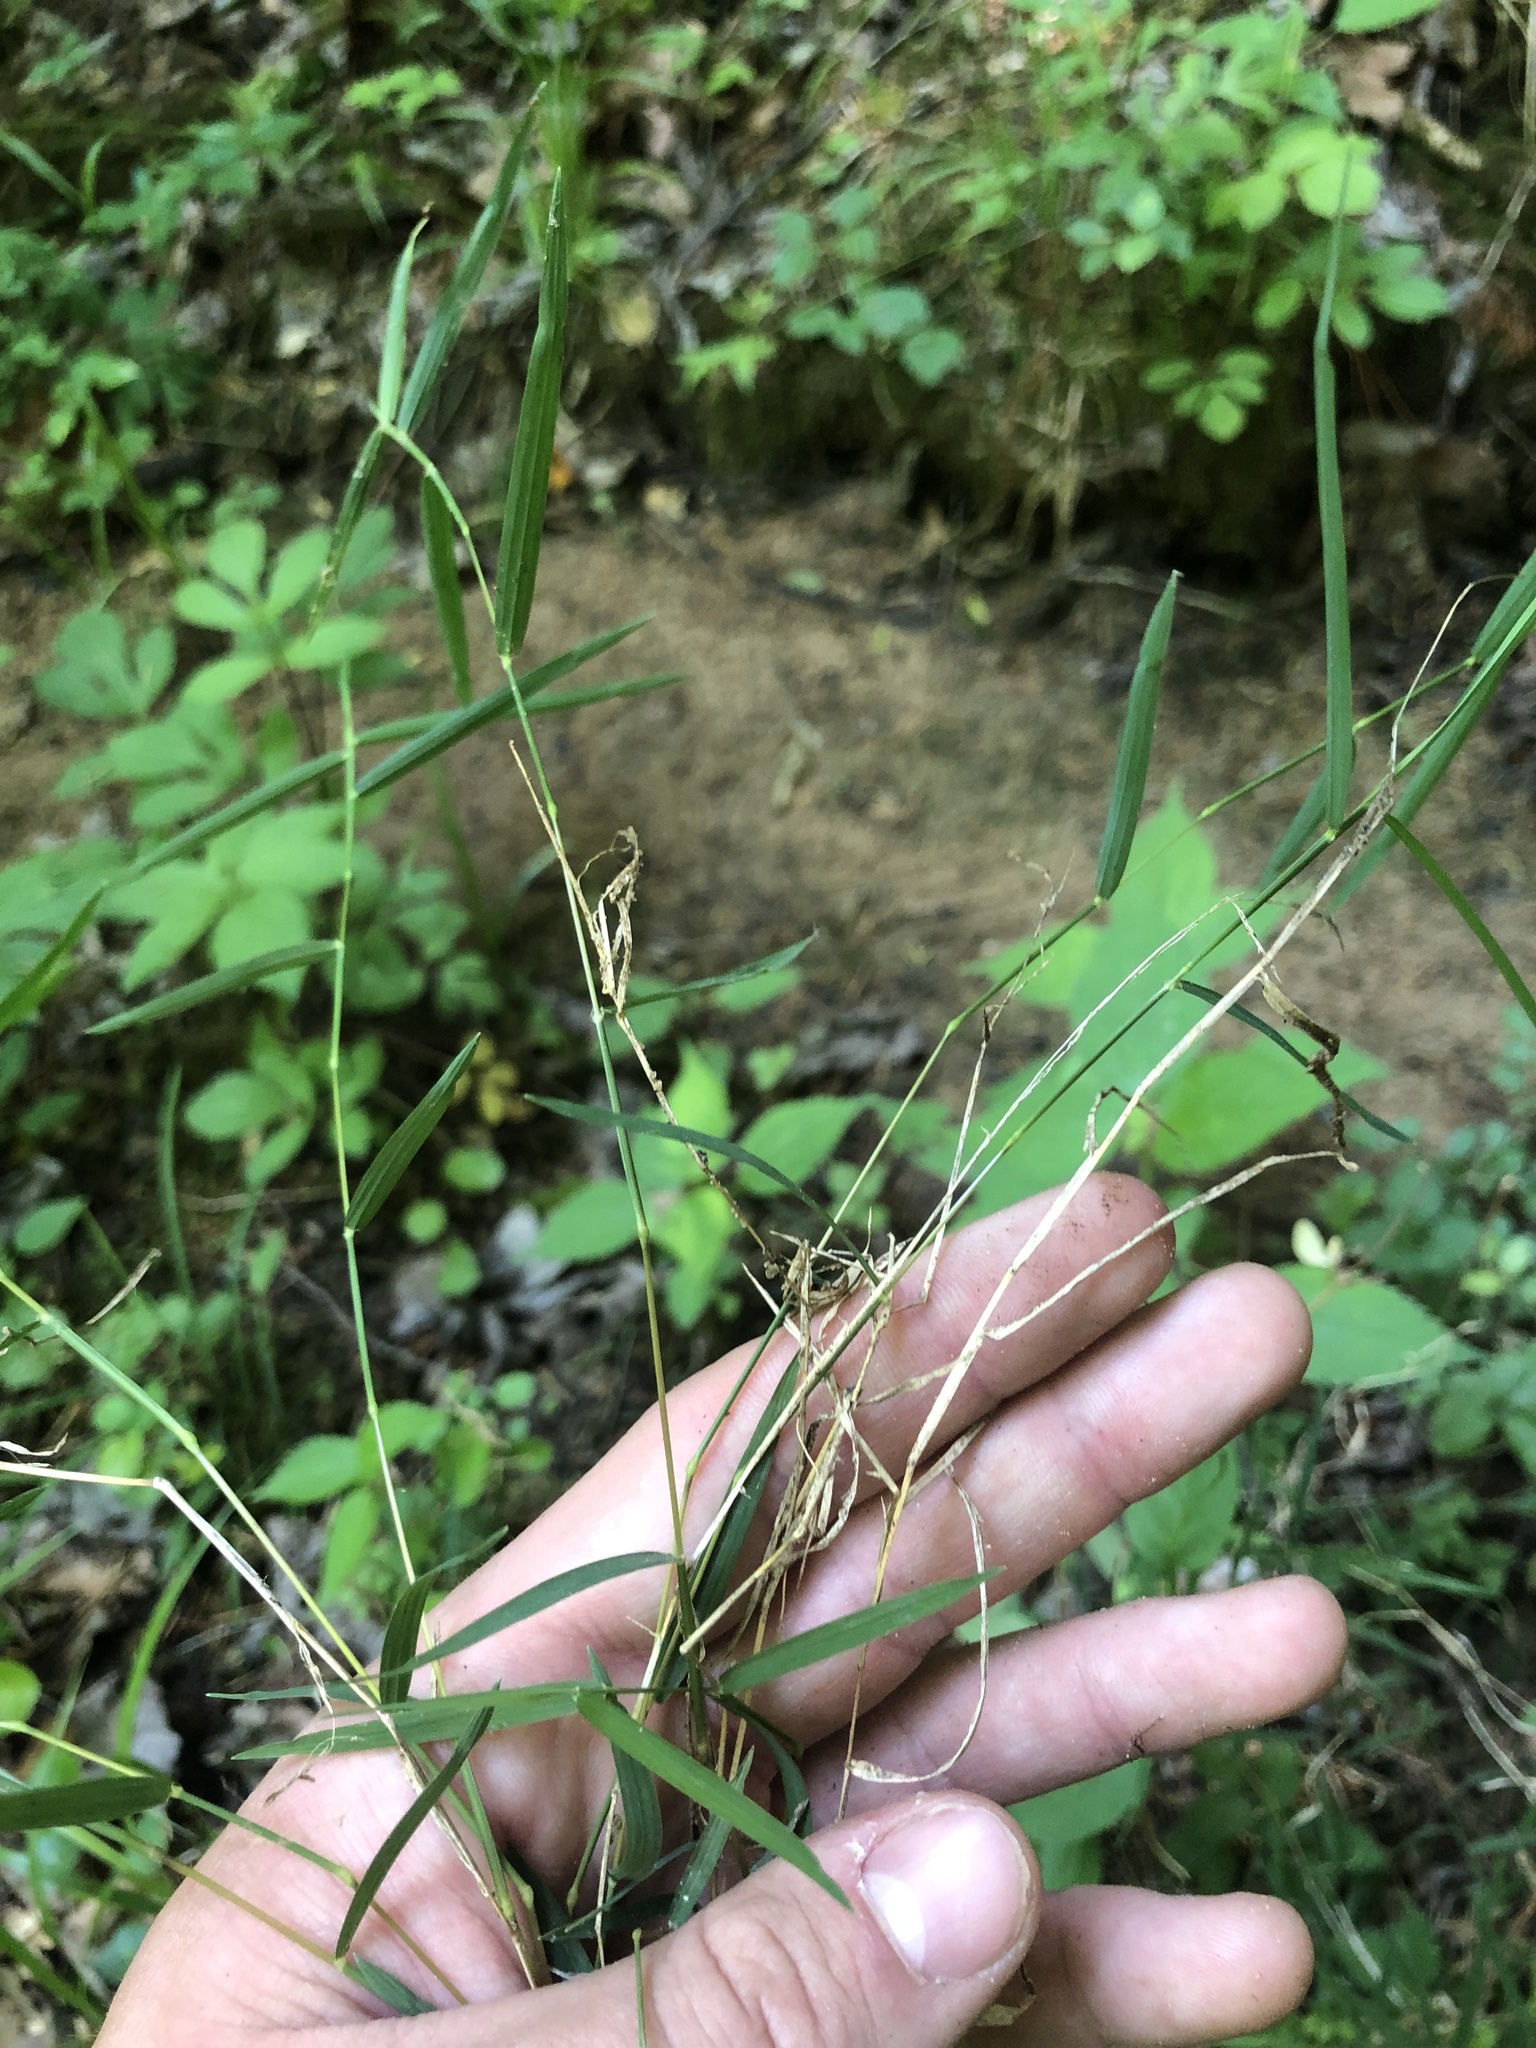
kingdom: Plantae
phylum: Tracheophyta
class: Liliopsida
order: Poales
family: Poaceae
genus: Muhlenbergia
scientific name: Muhlenbergia schreberi
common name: Nimblewill
